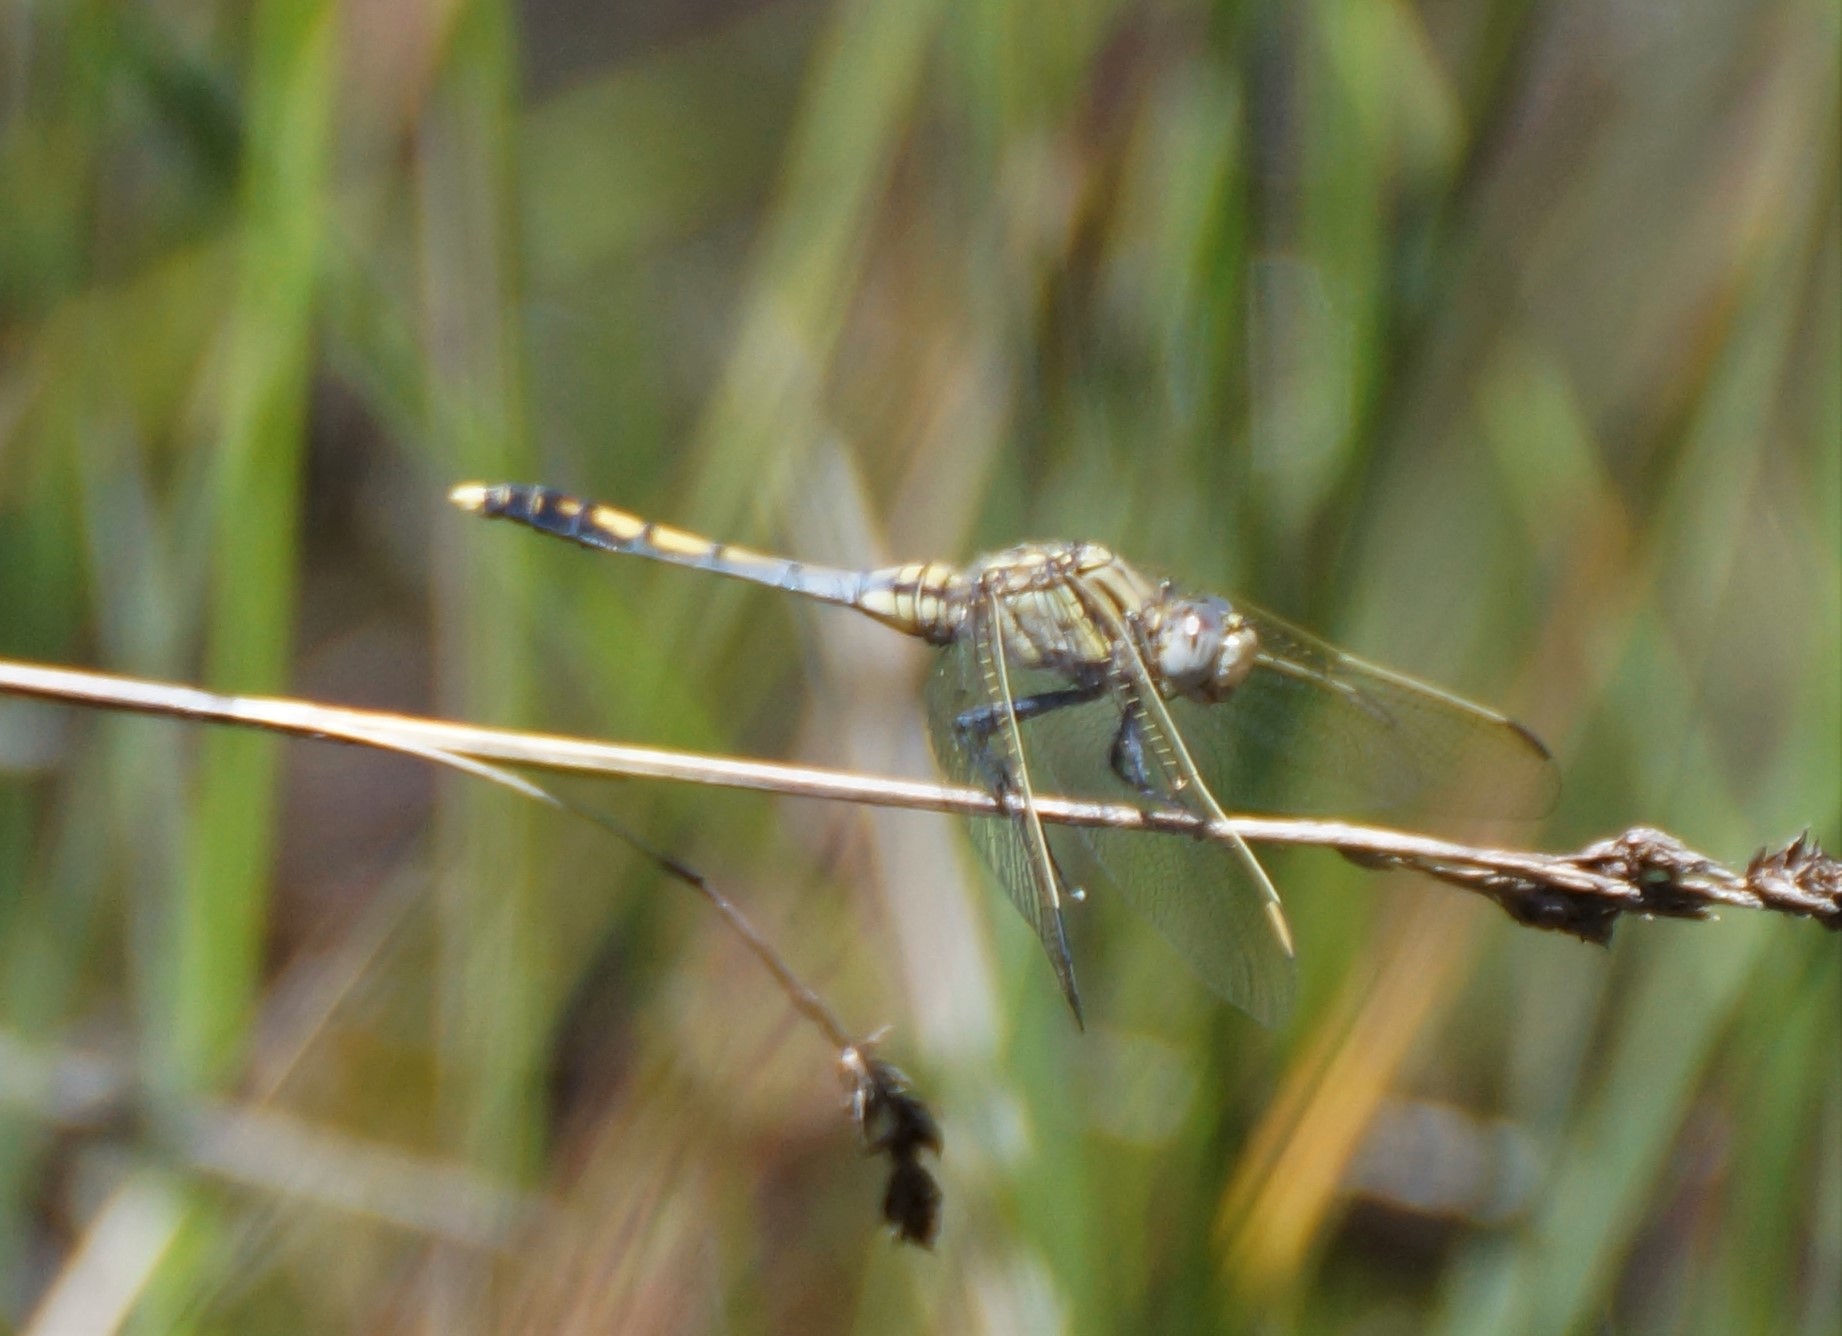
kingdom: Animalia
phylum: Arthropoda
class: Insecta
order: Odonata
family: Libellulidae
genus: Orthetrum
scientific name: Orthetrum caledonicum
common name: Blue skimmer
